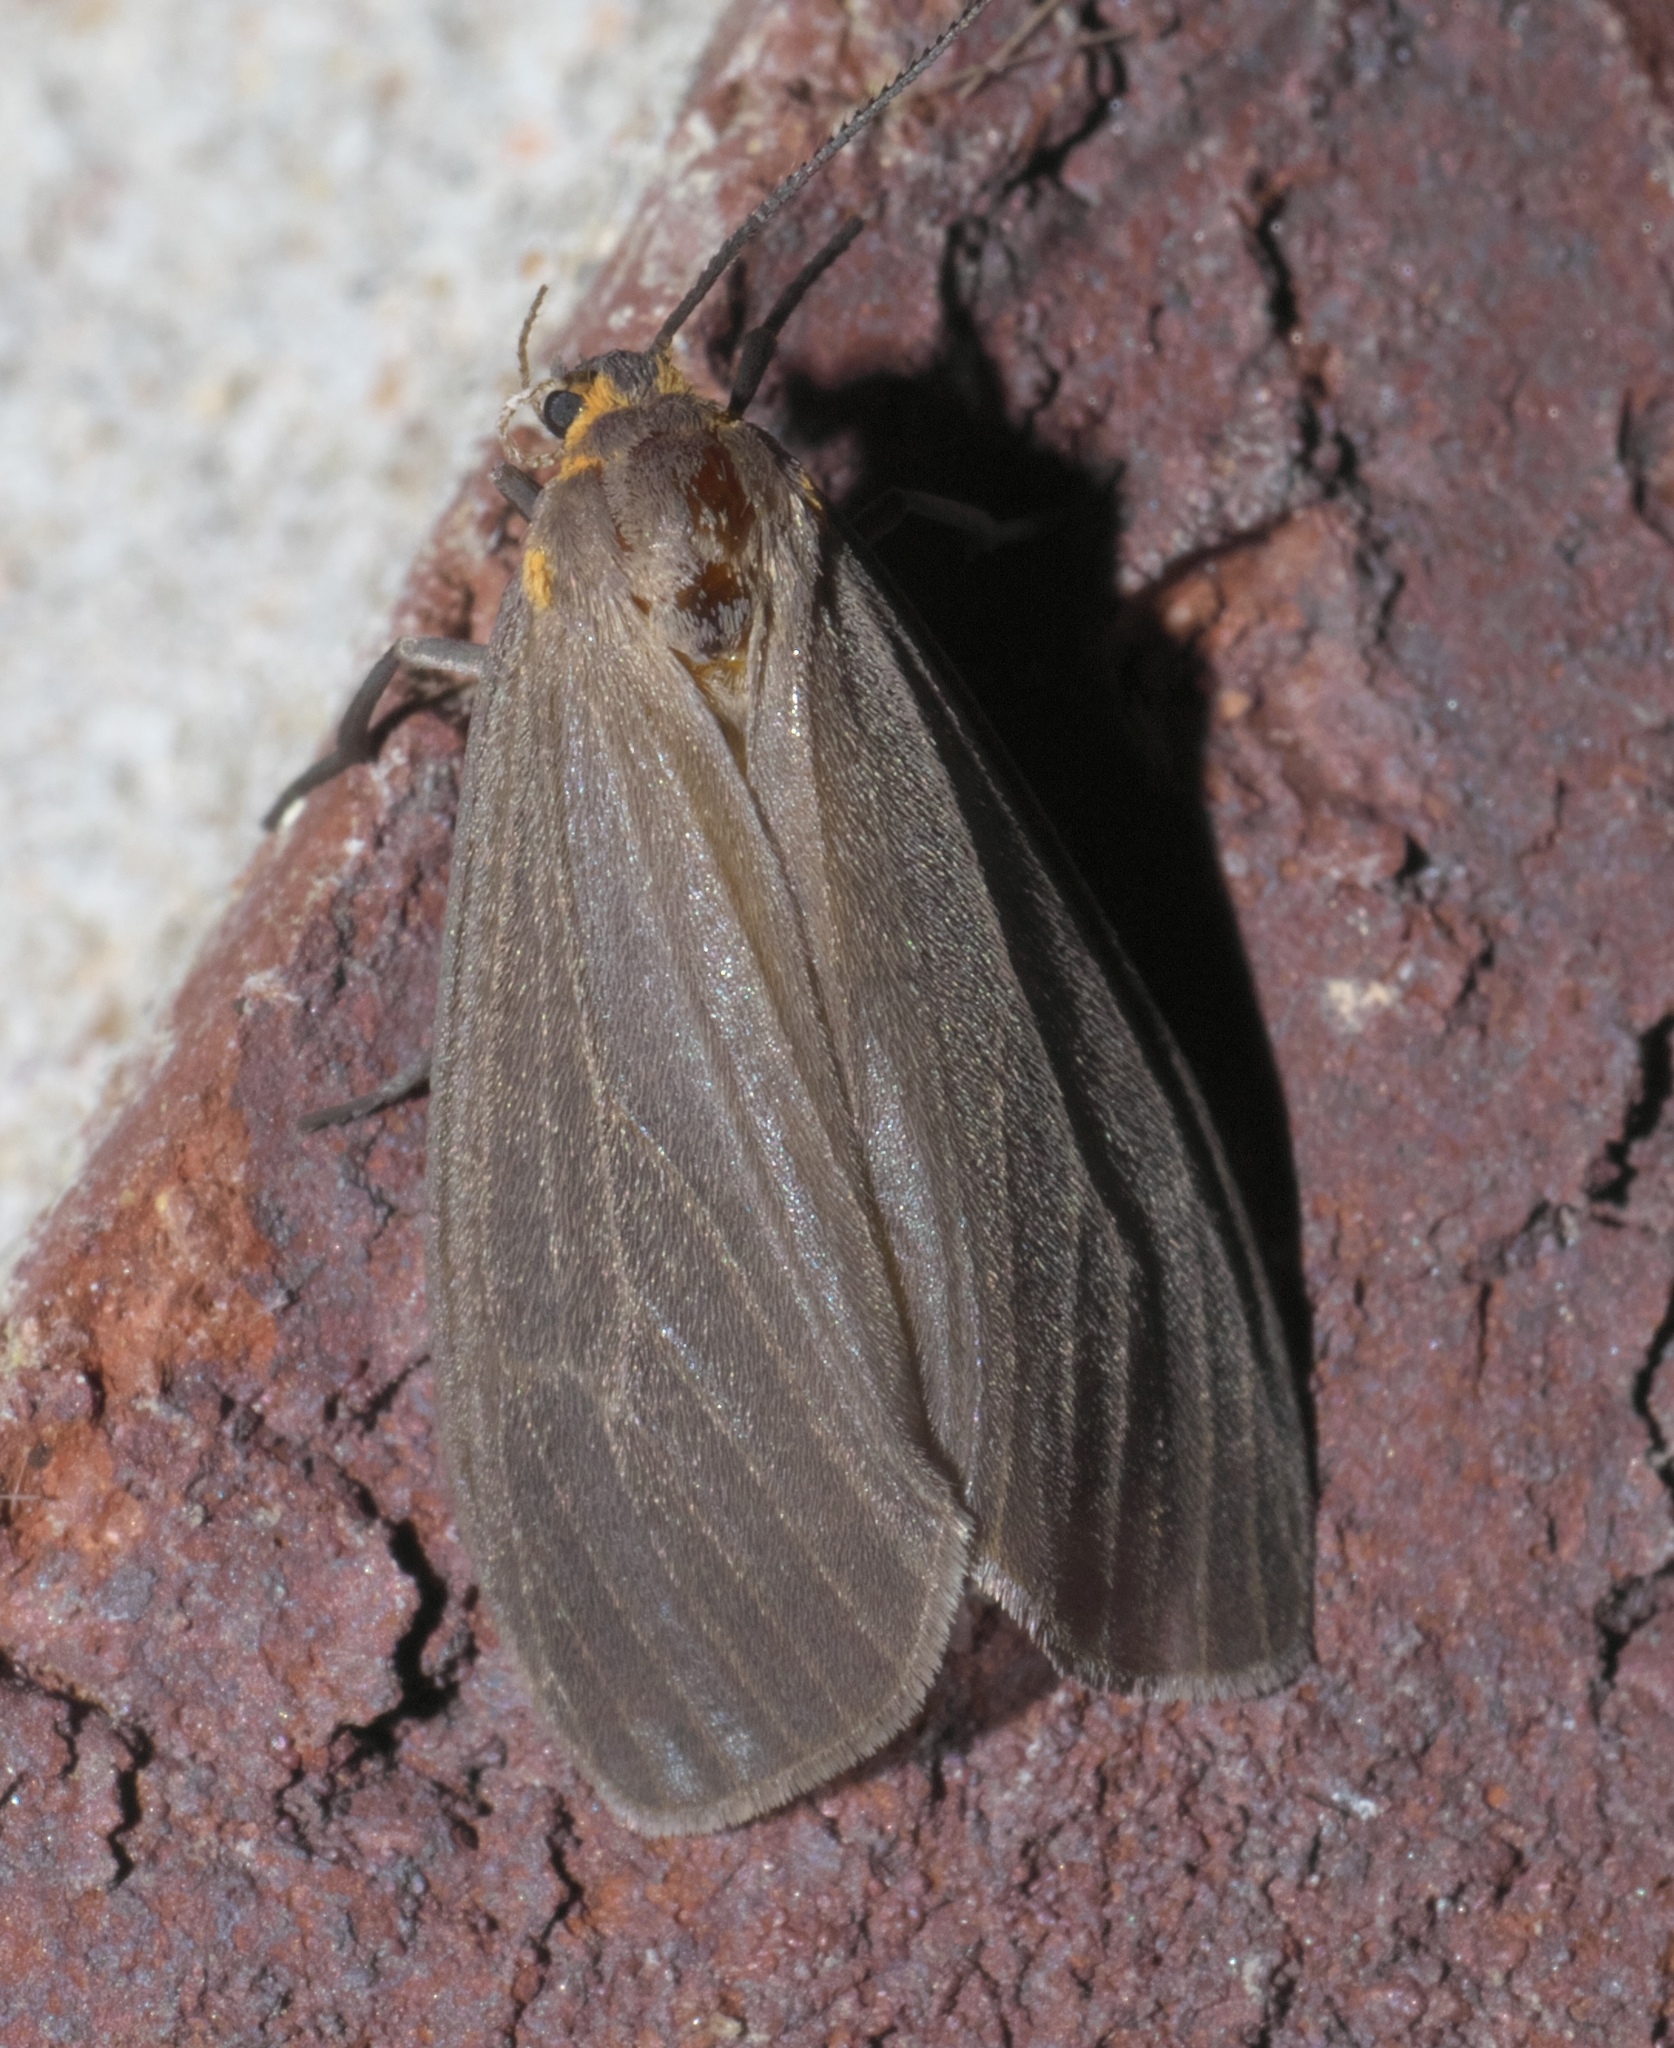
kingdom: Animalia
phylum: Arthropoda
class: Insecta
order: Lepidoptera
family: Erebidae
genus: Pagara
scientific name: Pagara simplex
